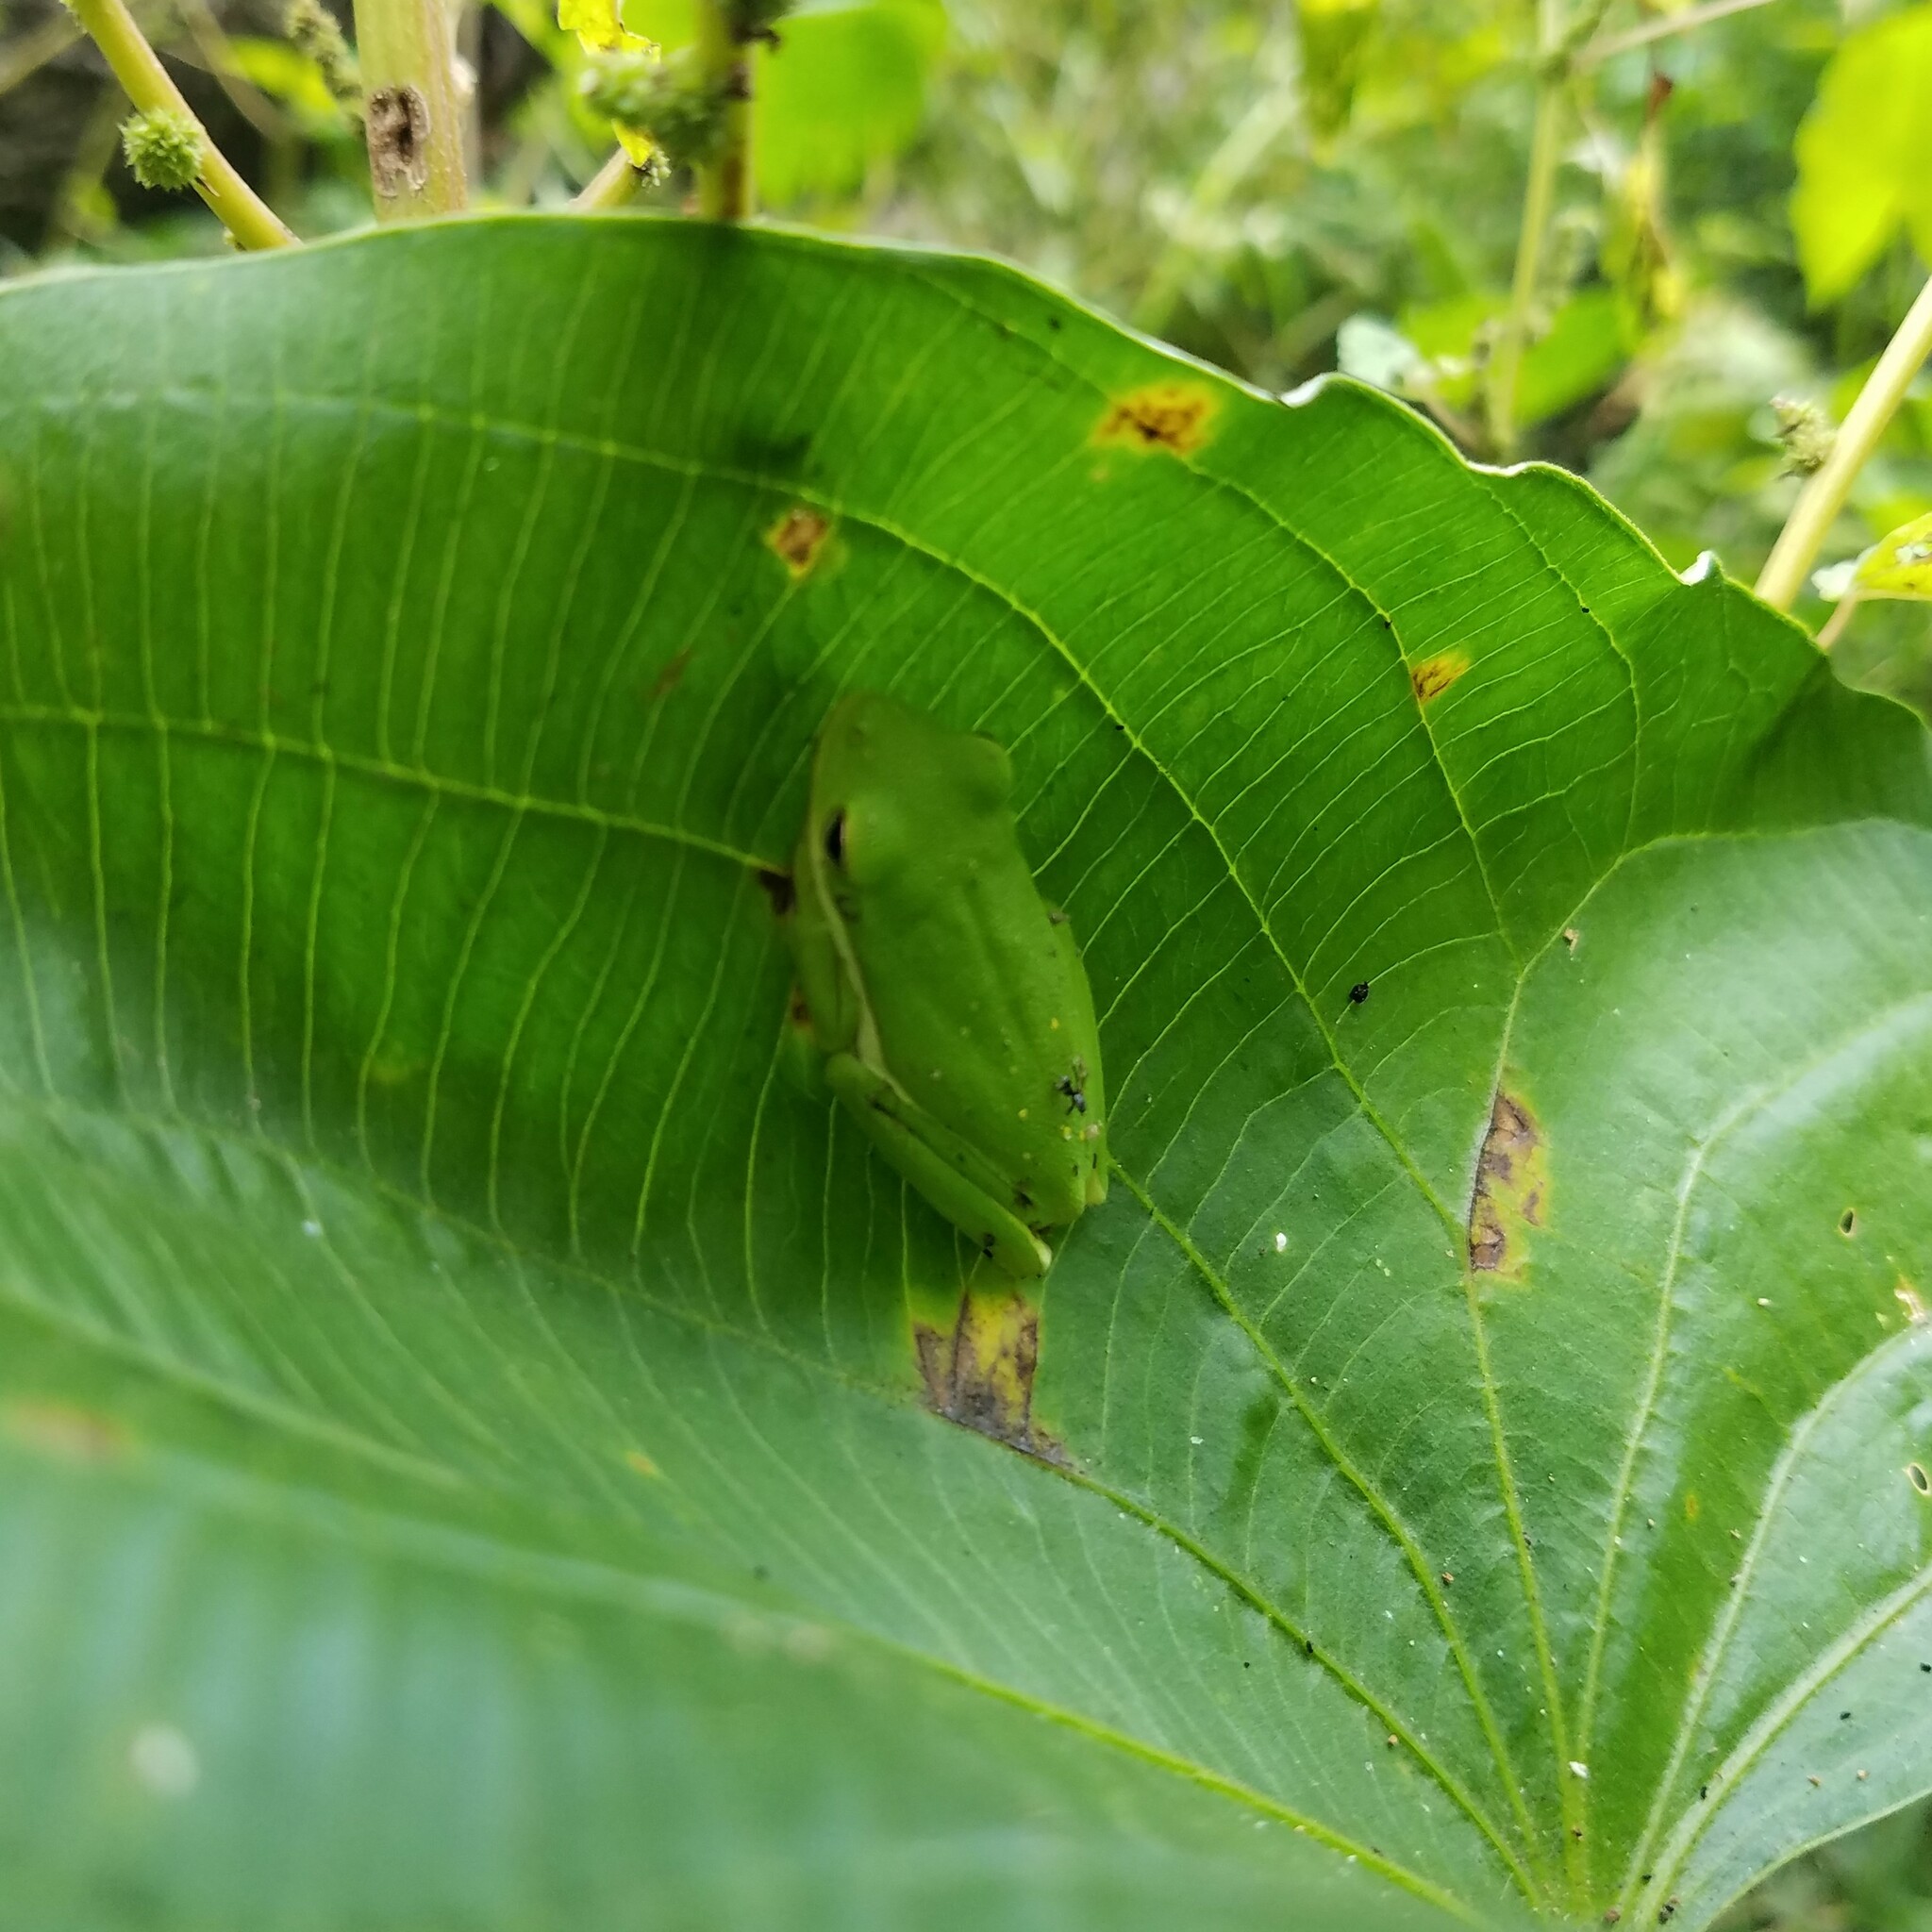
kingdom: Animalia
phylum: Chordata
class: Amphibia
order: Anura
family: Hylidae
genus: Dryophytes
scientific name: Dryophytes cinereus
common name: Green treefrog
